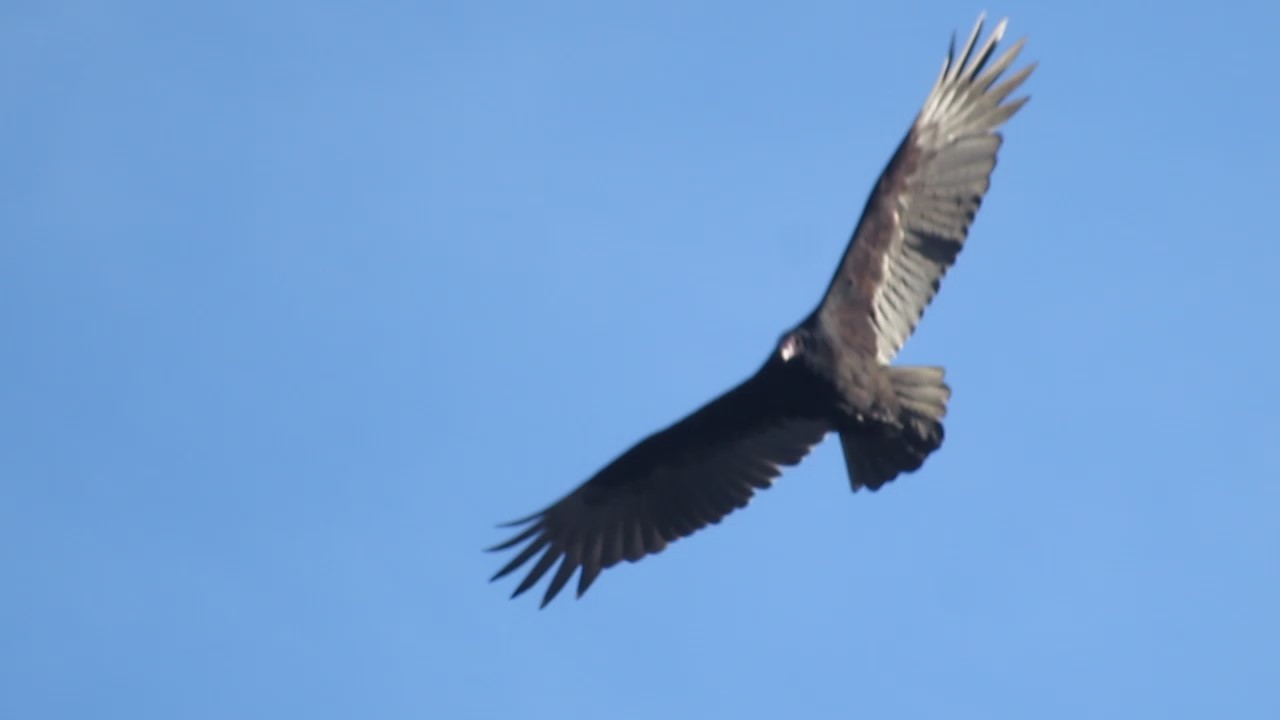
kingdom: Animalia
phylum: Chordata
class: Aves
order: Accipitriformes
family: Cathartidae
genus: Cathartes
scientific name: Cathartes aura
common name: Turkey vulture
